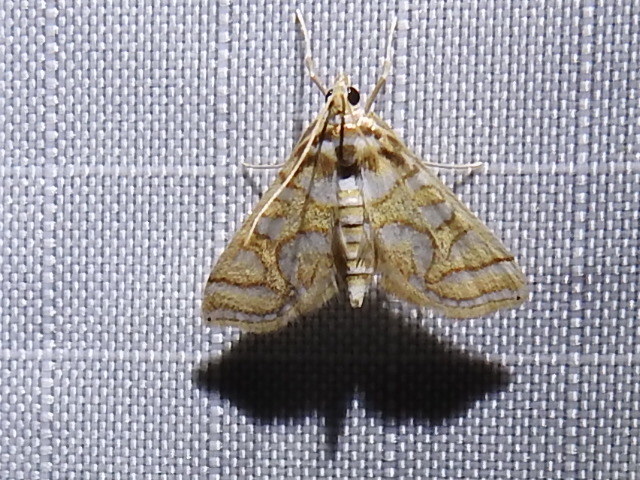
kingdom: Animalia
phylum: Arthropoda
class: Insecta
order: Lepidoptera
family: Crambidae
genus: Pseudopyrausta
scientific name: Pseudopyrausta santatalis
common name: Moth
